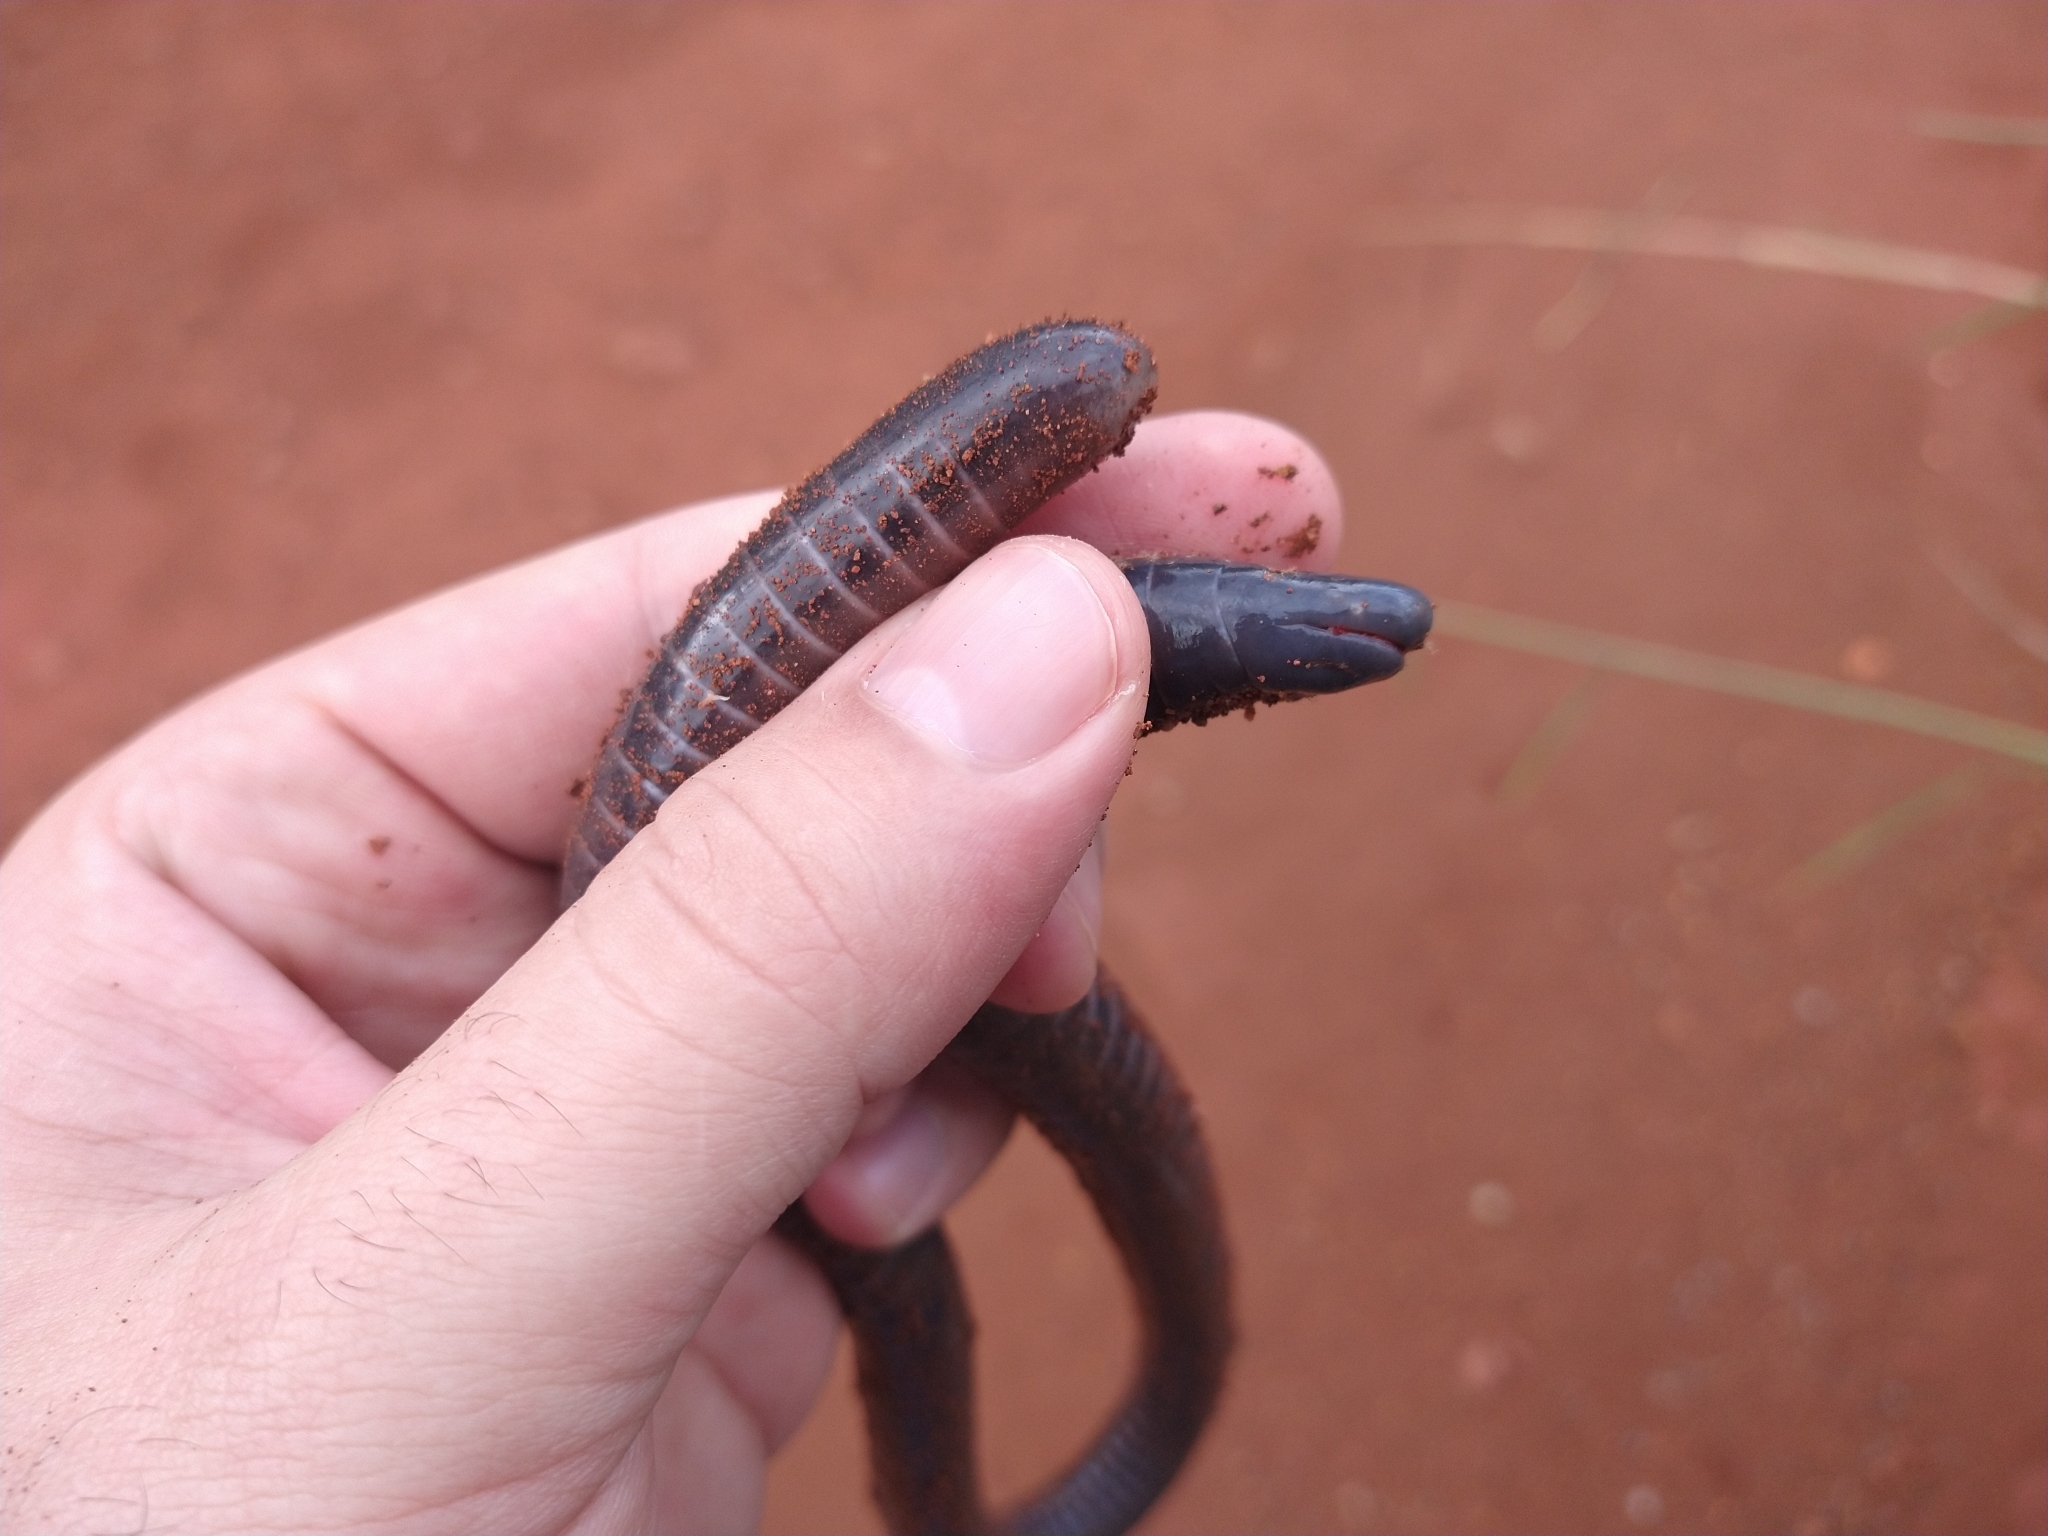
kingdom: Animalia
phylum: Chordata
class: Amphibia
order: Gymnophiona
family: Siphonopidae
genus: Siphonops
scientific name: Siphonops paulensis
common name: Boettger's caecilian
